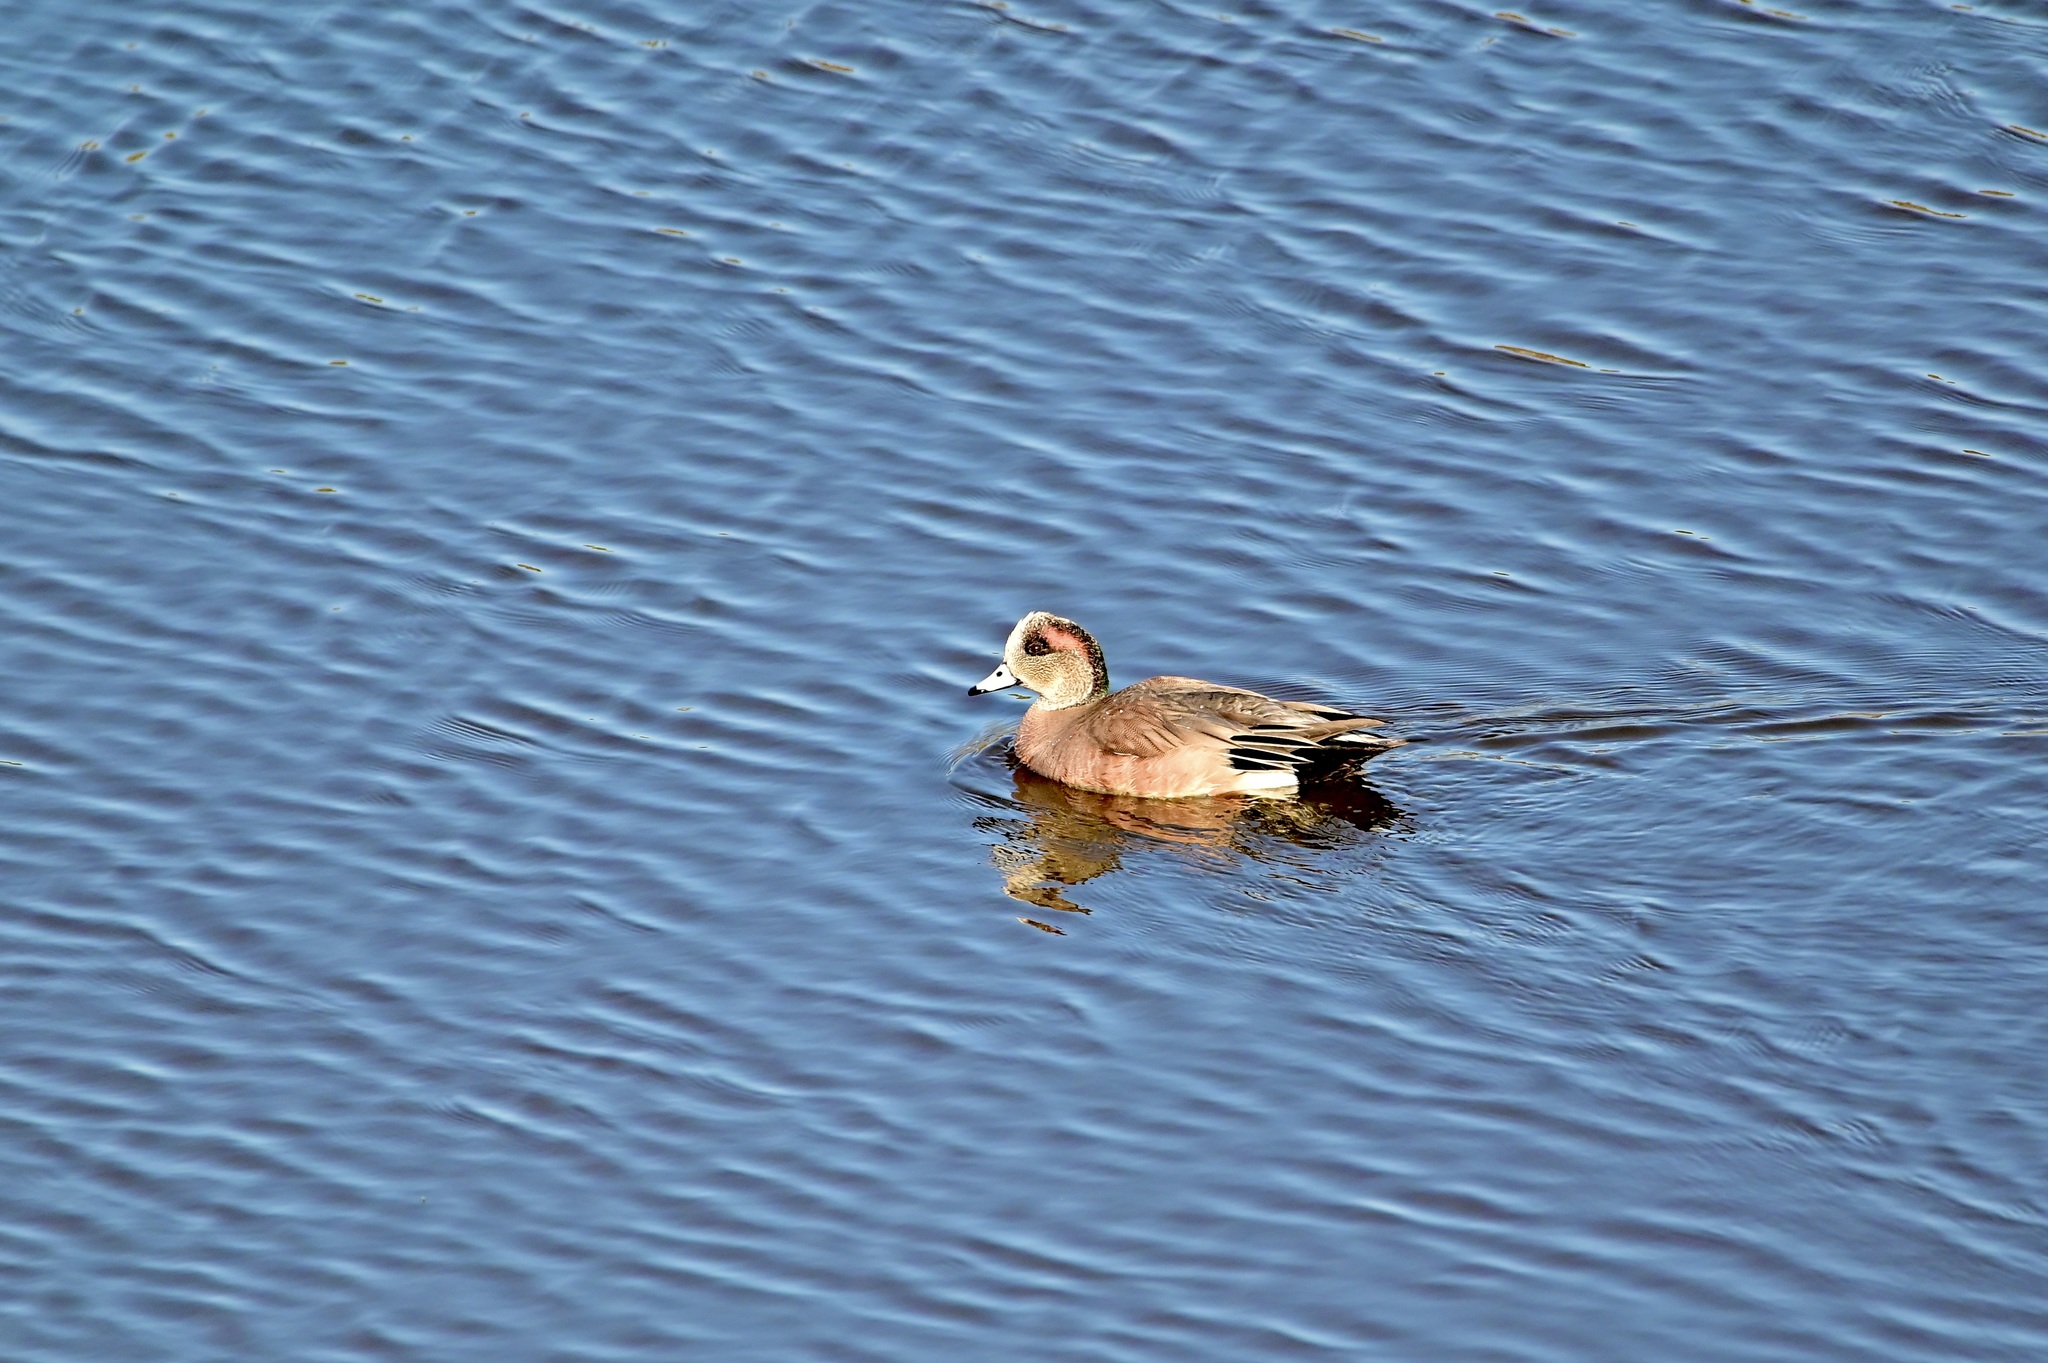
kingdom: Animalia
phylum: Chordata
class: Aves
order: Anseriformes
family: Anatidae
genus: Mareca
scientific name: Mareca americana
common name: American wigeon
